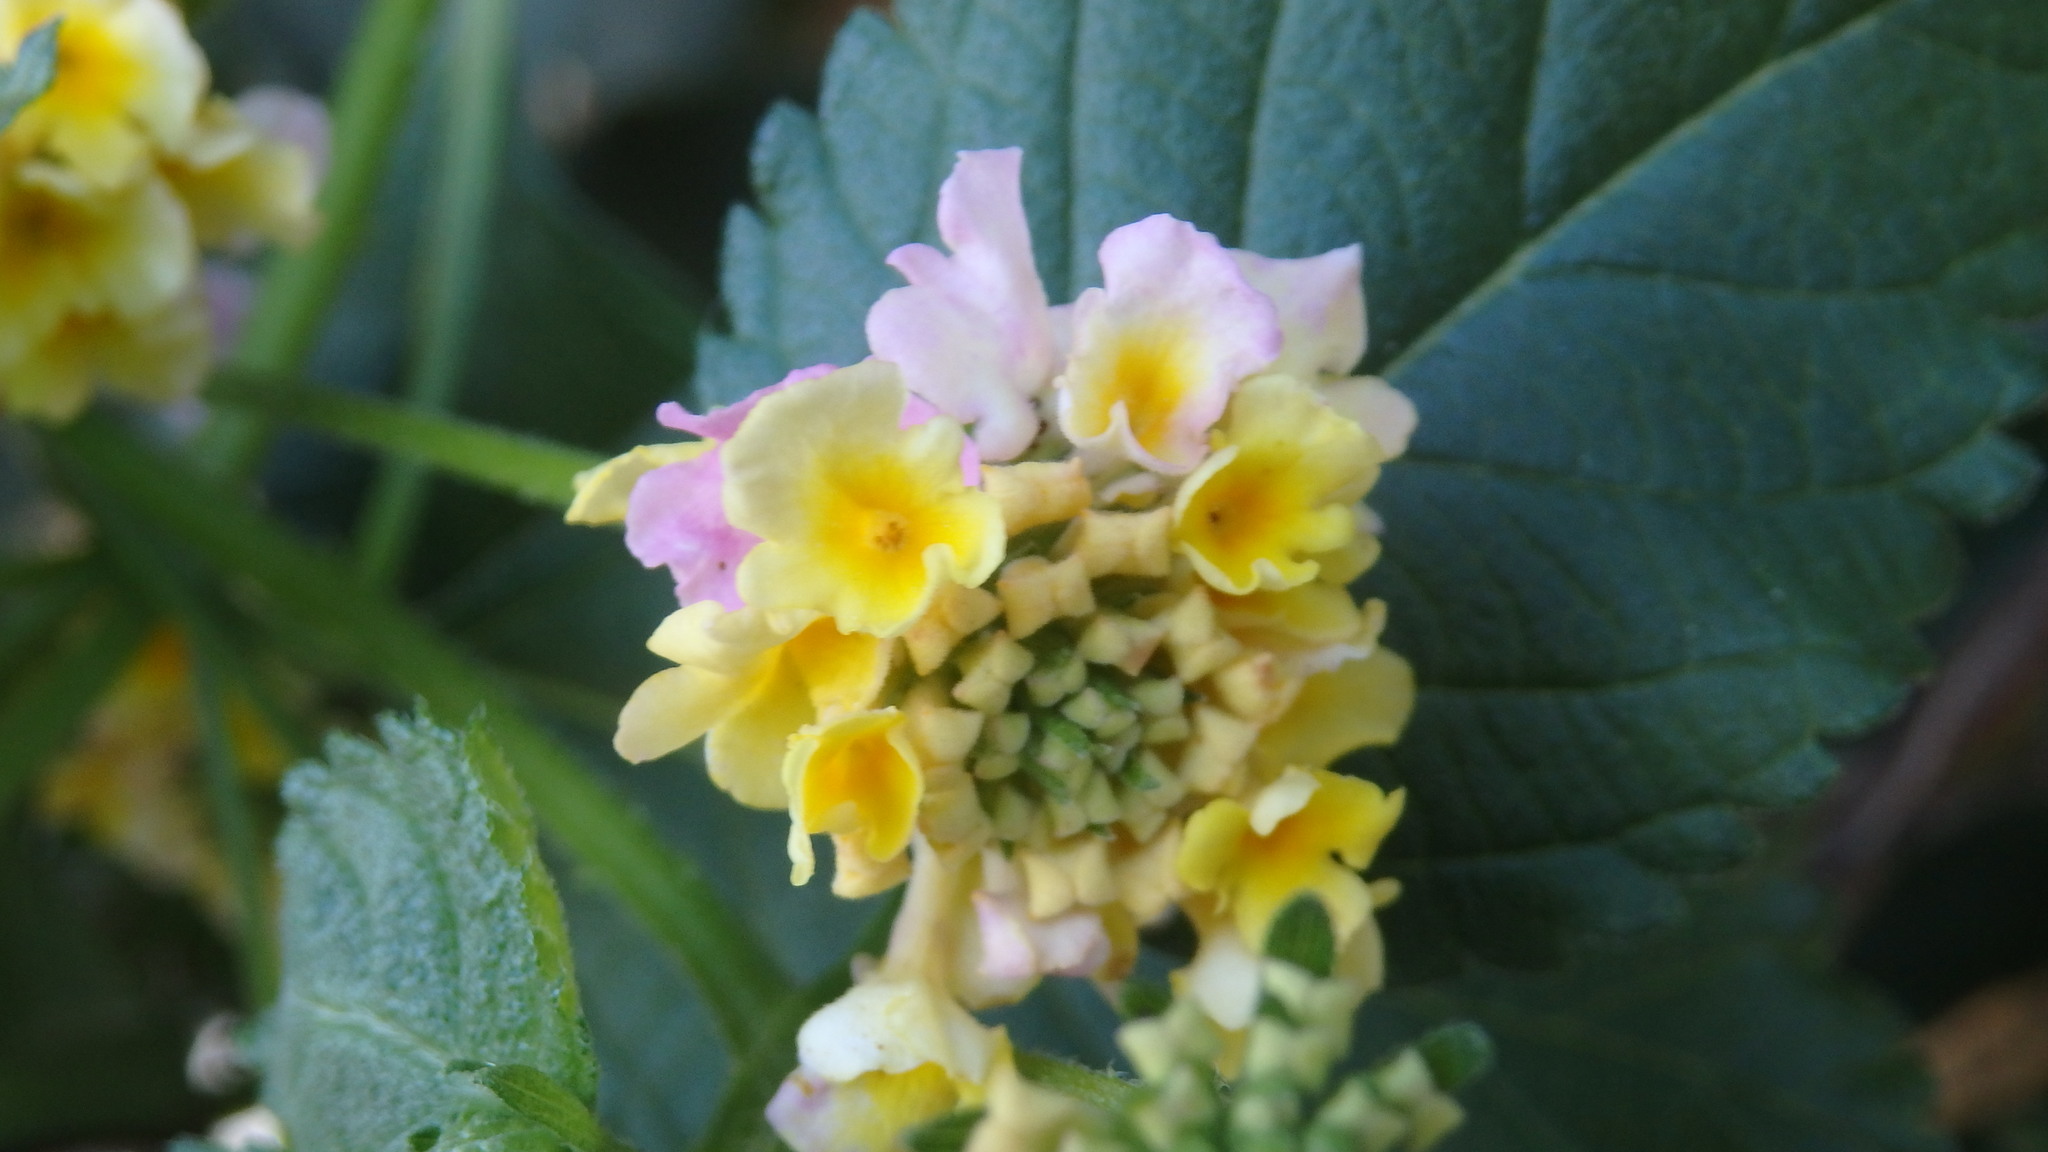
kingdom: Plantae
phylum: Tracheophyta
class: Magnoliopsida
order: Lamiales
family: Verbenaceae
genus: Lantana
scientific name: Lantana camara
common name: Lantana
